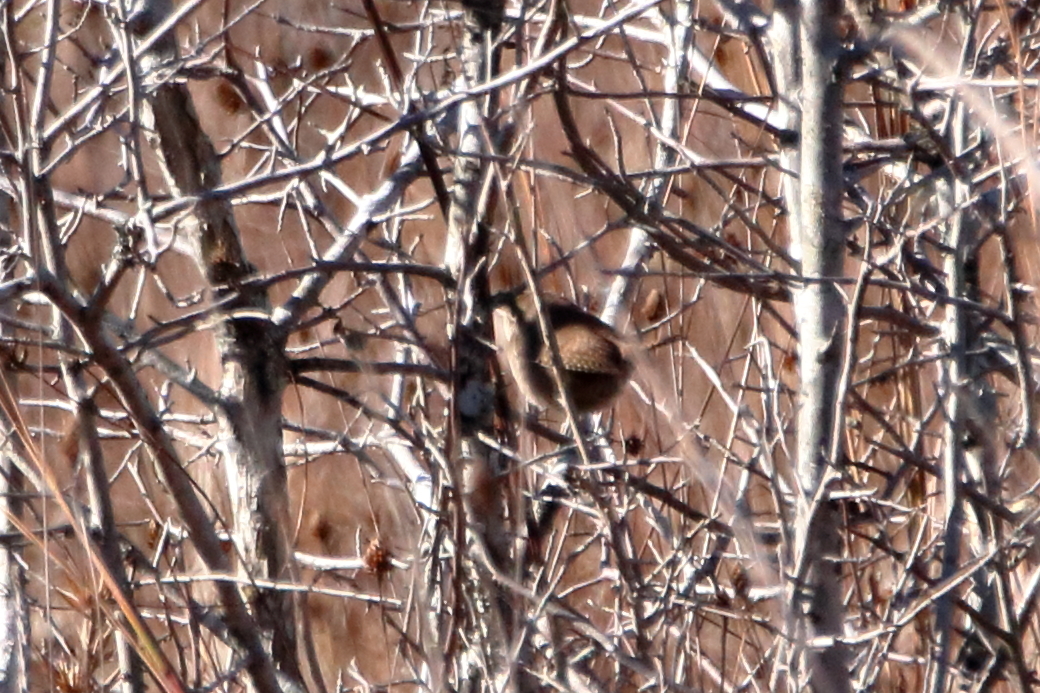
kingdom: Animalia
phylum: Chordata
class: Aves
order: Passeriformes
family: Troglodytidae
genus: Troglodytes
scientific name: Troglodytes aedon
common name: House wren
